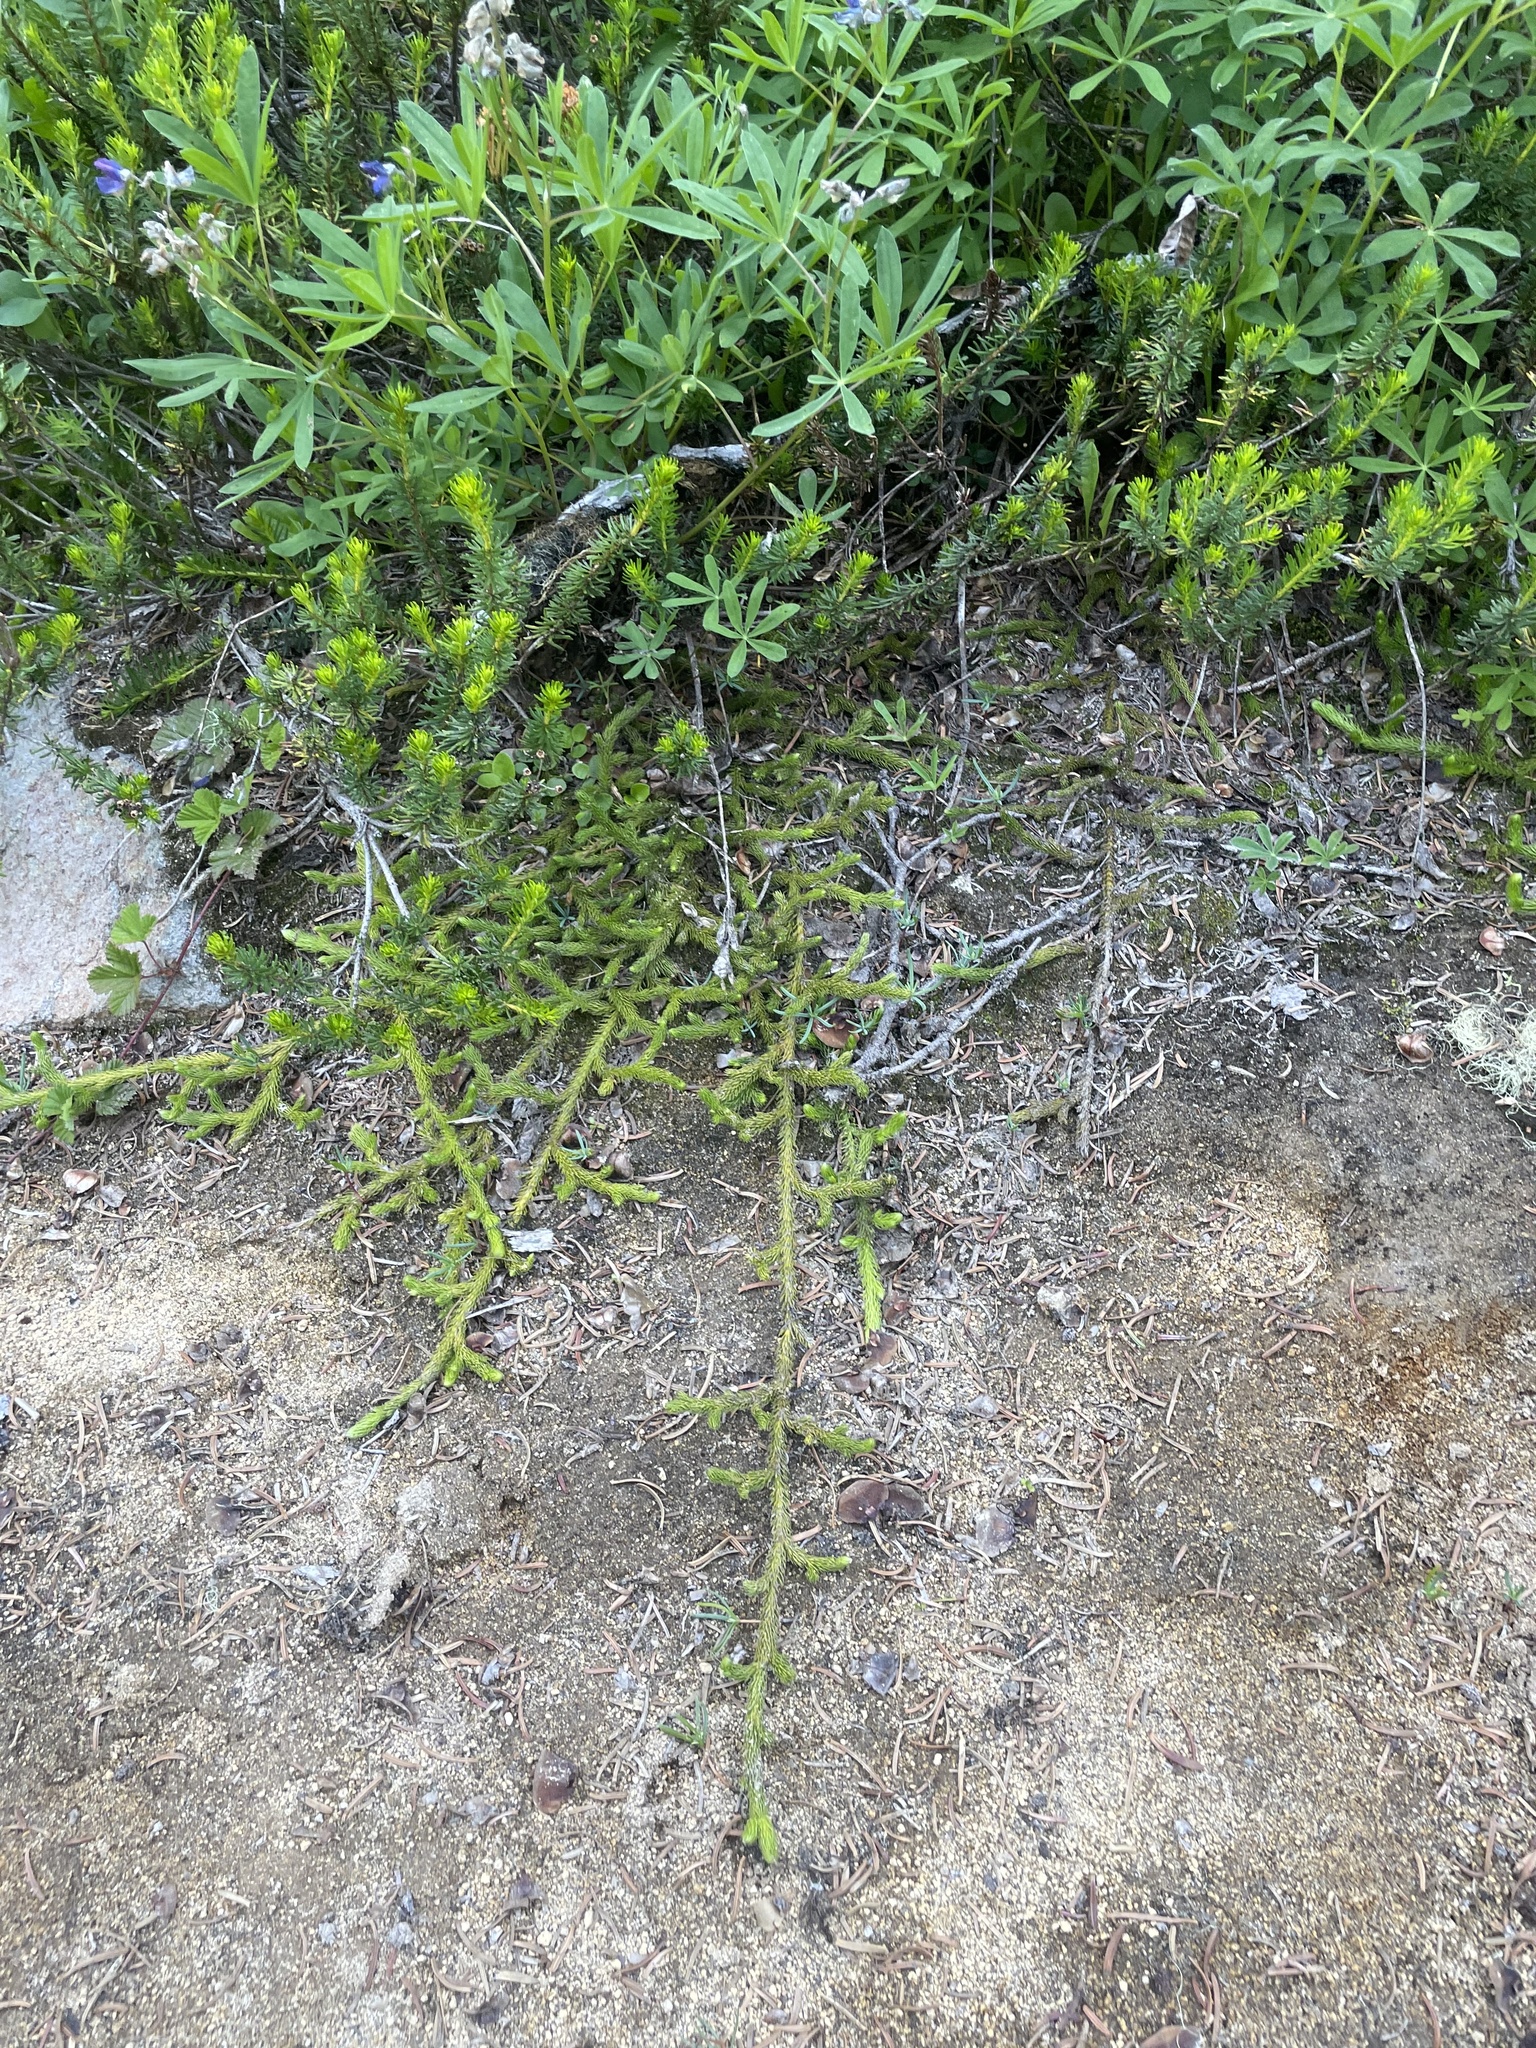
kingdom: Plantae
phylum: Tracheophyta
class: Lycopodiopsida
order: Lycopodiales
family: Lycopodiaceae
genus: Lycopodium
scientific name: Lycopodium clavatum
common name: Stag's-horn clubmoss
